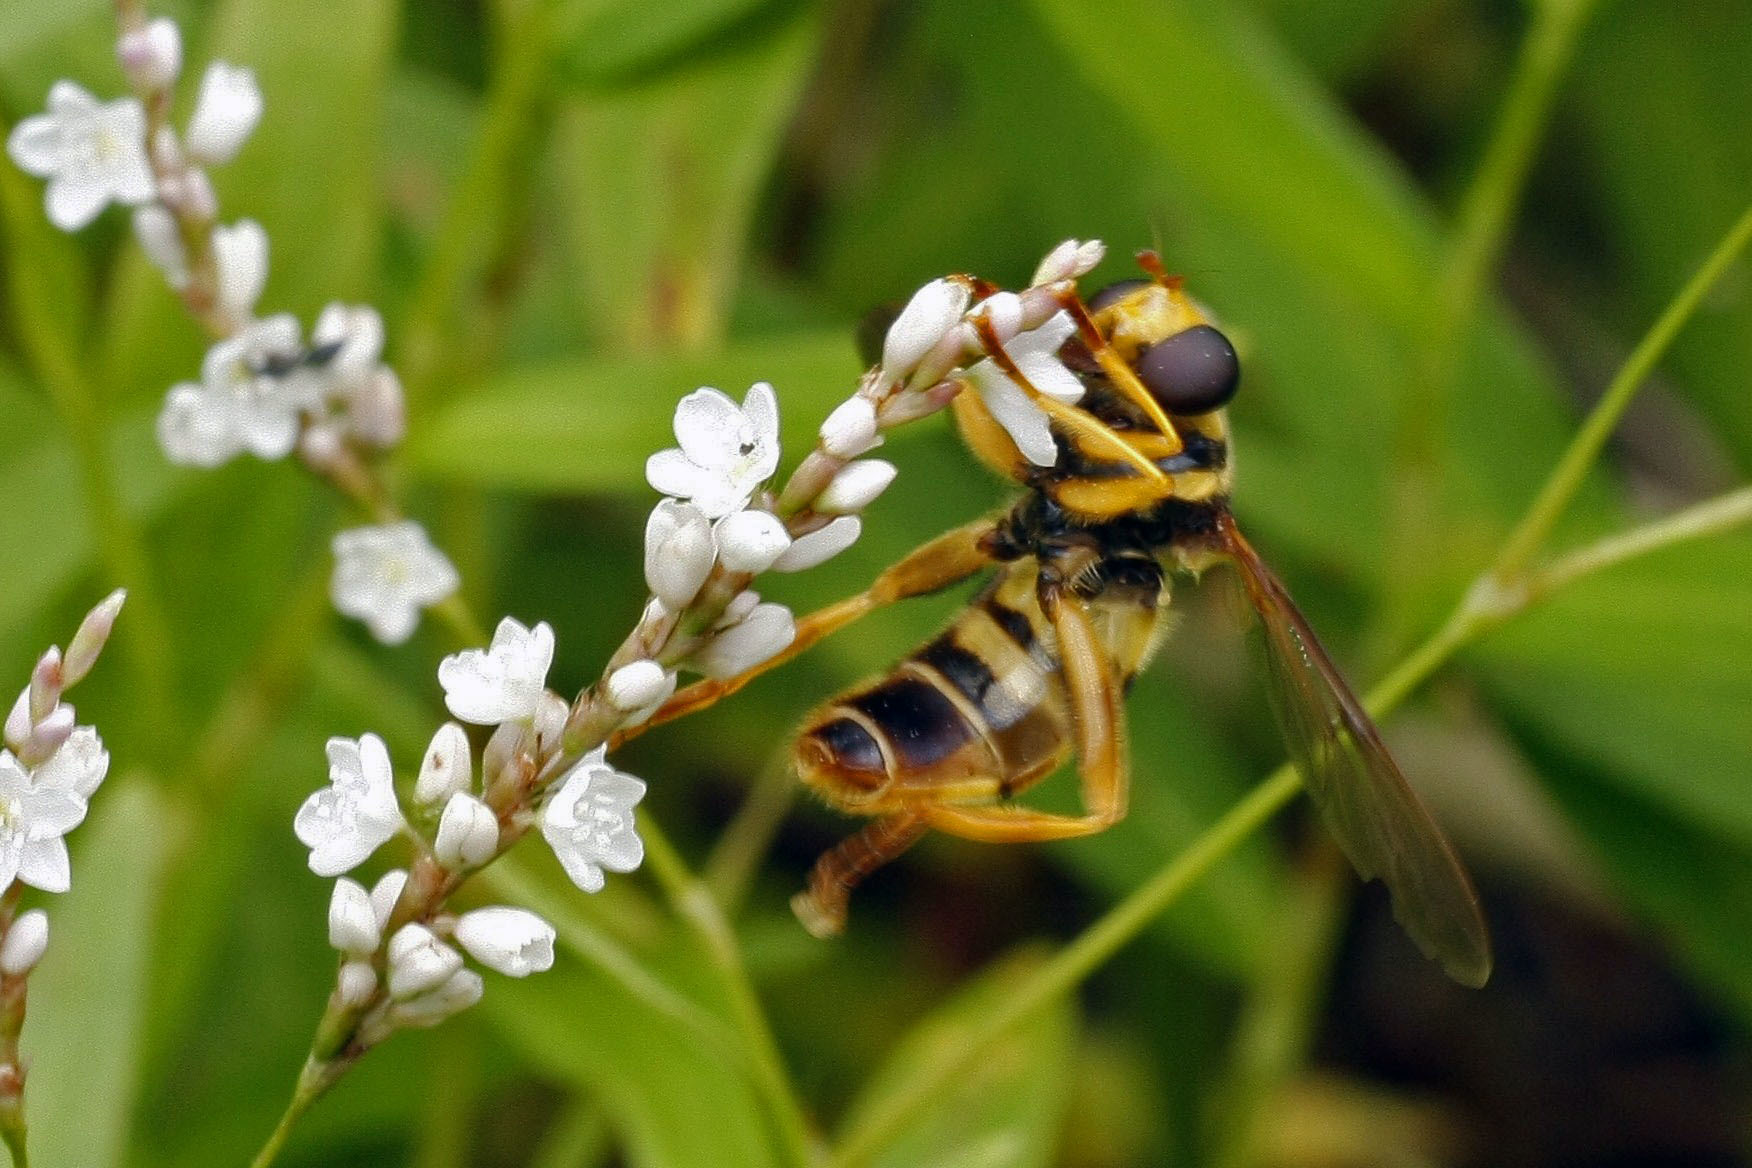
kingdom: Animalia
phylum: Arthropoda
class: Insecta
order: Diptera
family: Syrphidae
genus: Milesia
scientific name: Milesia virginiensis
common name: Virginia giant
